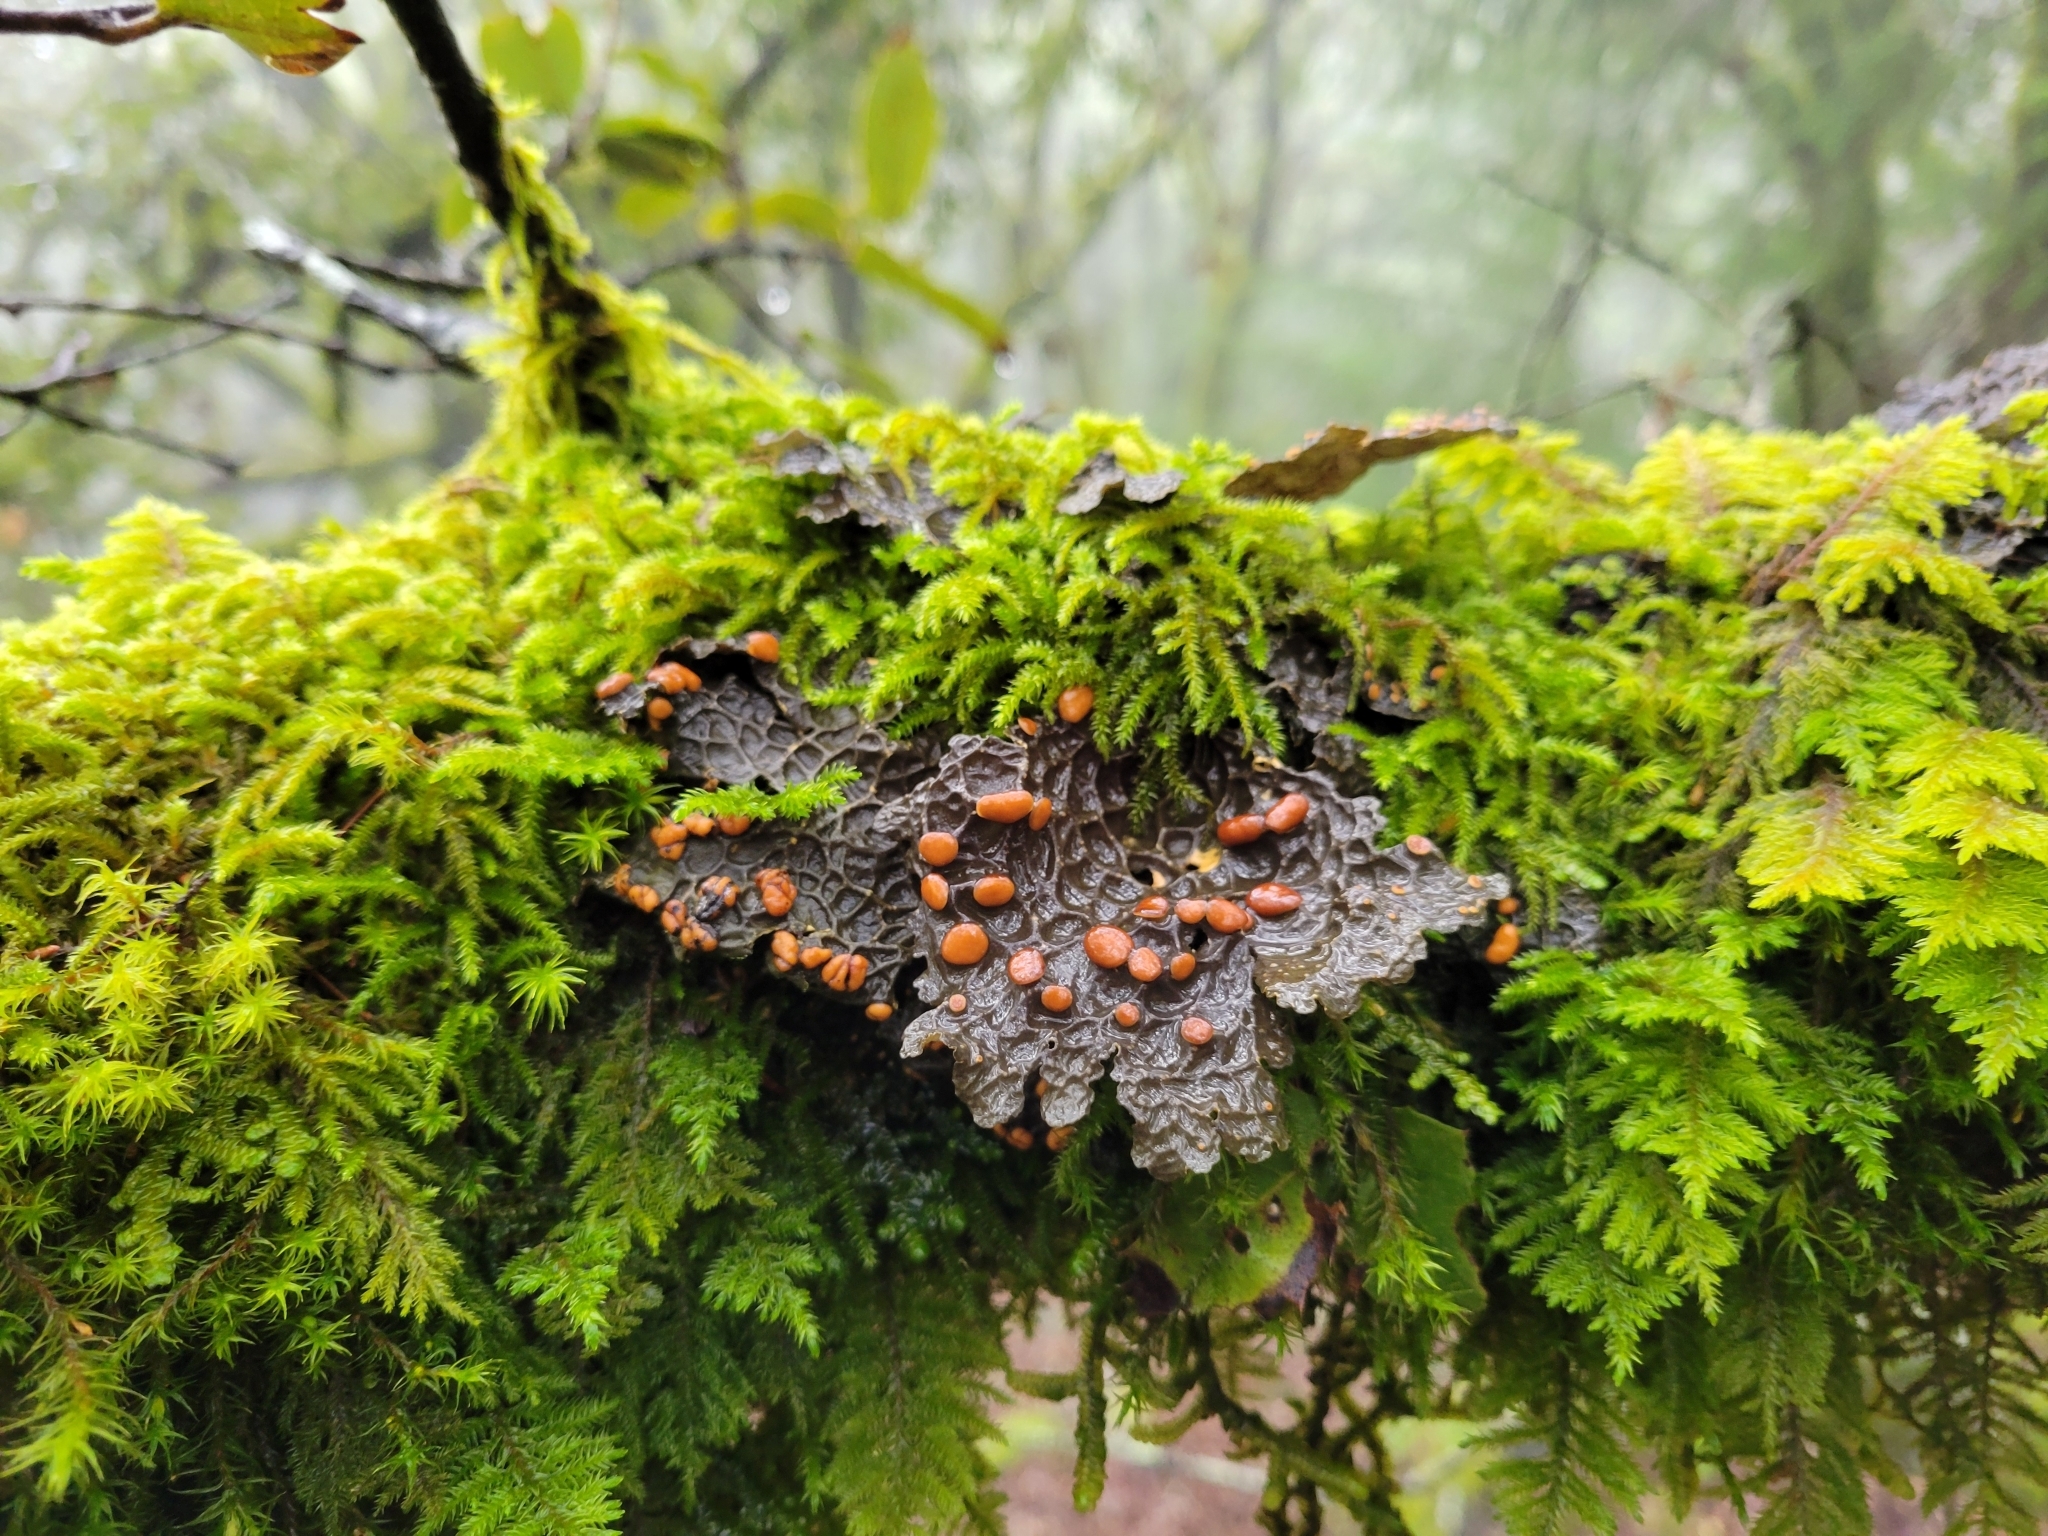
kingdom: Fungi
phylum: Ascomycota
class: Lecanoromycetes
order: Peltigerales
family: Lobariaceae
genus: Lobaria
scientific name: Lobaria anthraspis
